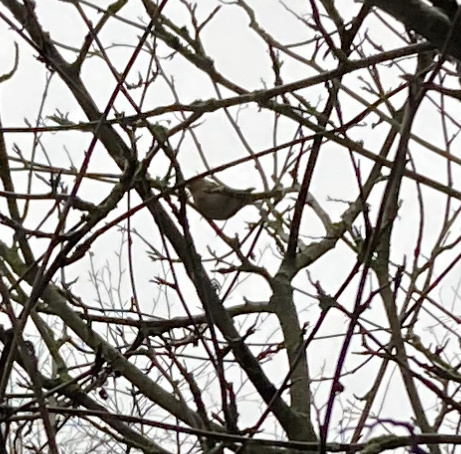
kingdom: Animalia
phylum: Chordata
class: Aves
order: Passeriformes
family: Fringillidae
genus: Fringilla
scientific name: Fringilla coelebs
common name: Common chaffinch
